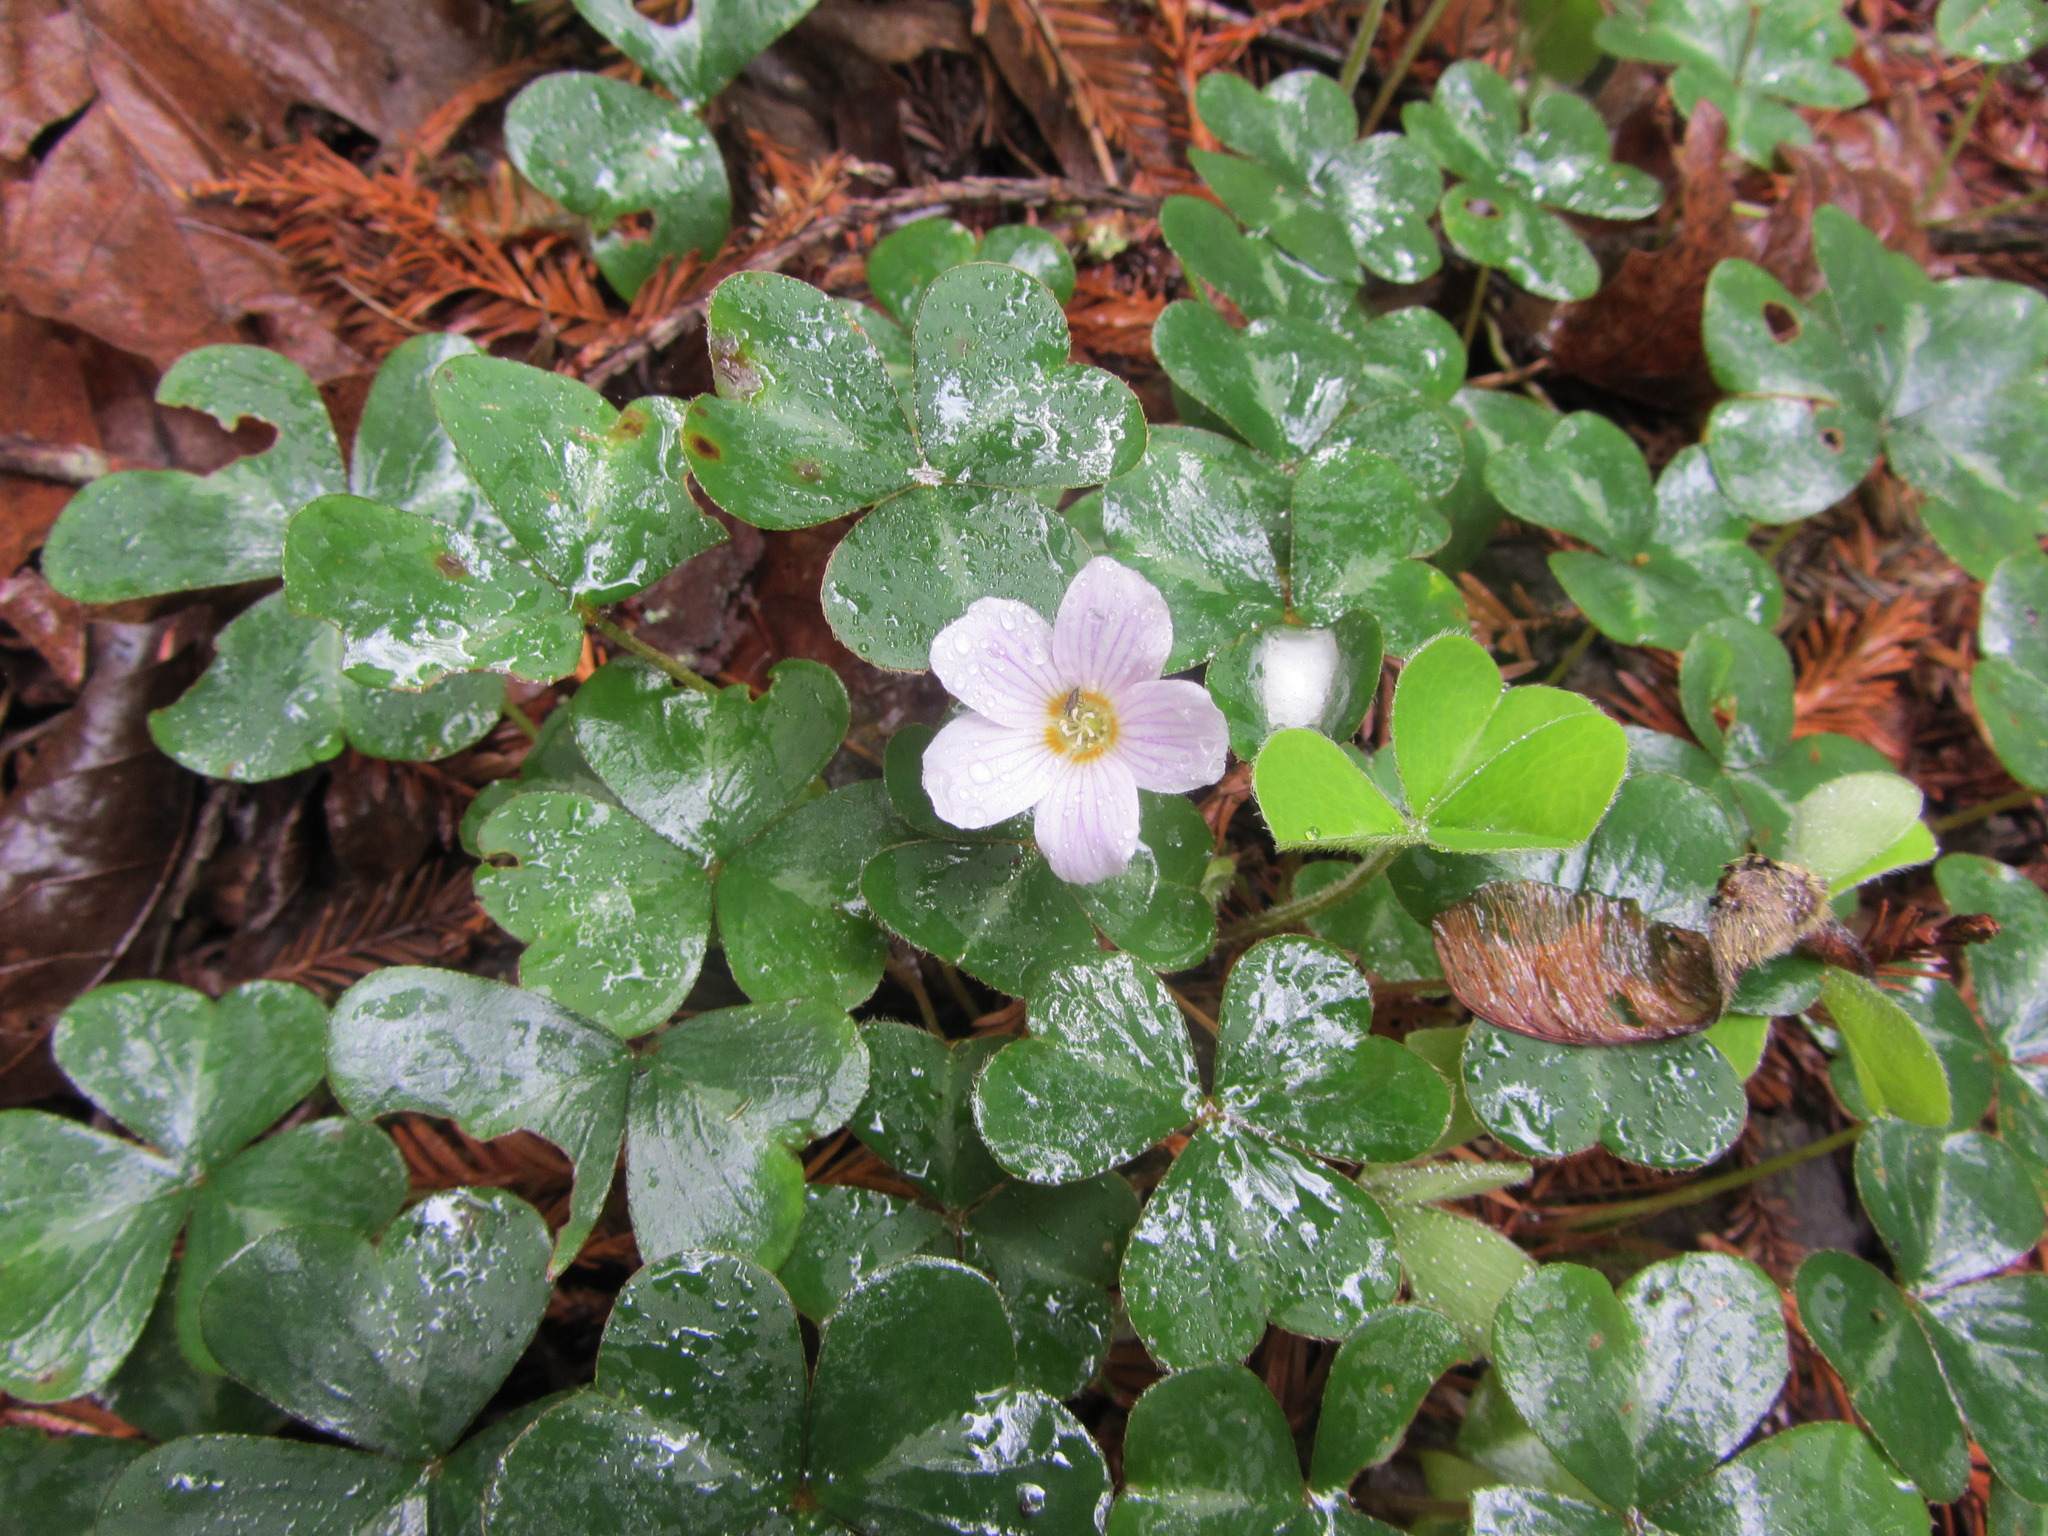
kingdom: Plantae
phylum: Tracheophyta
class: Magnoliopsida
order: Oxalidales
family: Oxalidaceae
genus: Oxalis
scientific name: Oxalis oregana
